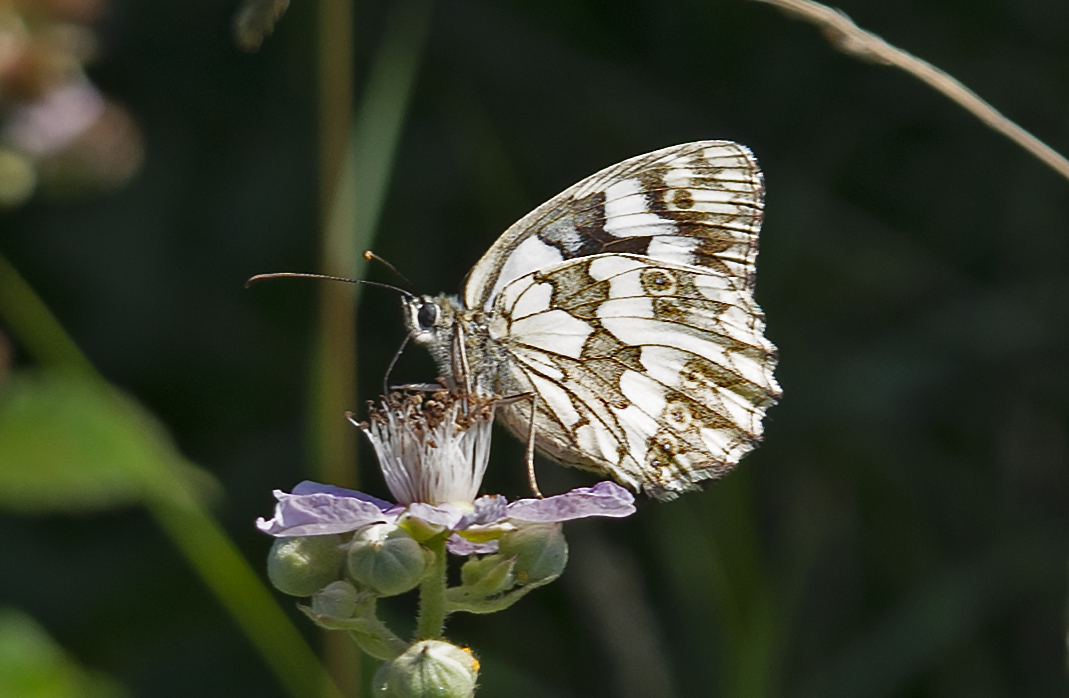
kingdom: Animalia
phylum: Arthropoda
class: Insecta
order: Lepidoptera
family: Nymphalidae
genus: Melanargia
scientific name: Melanargia galathea
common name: Marbled white
